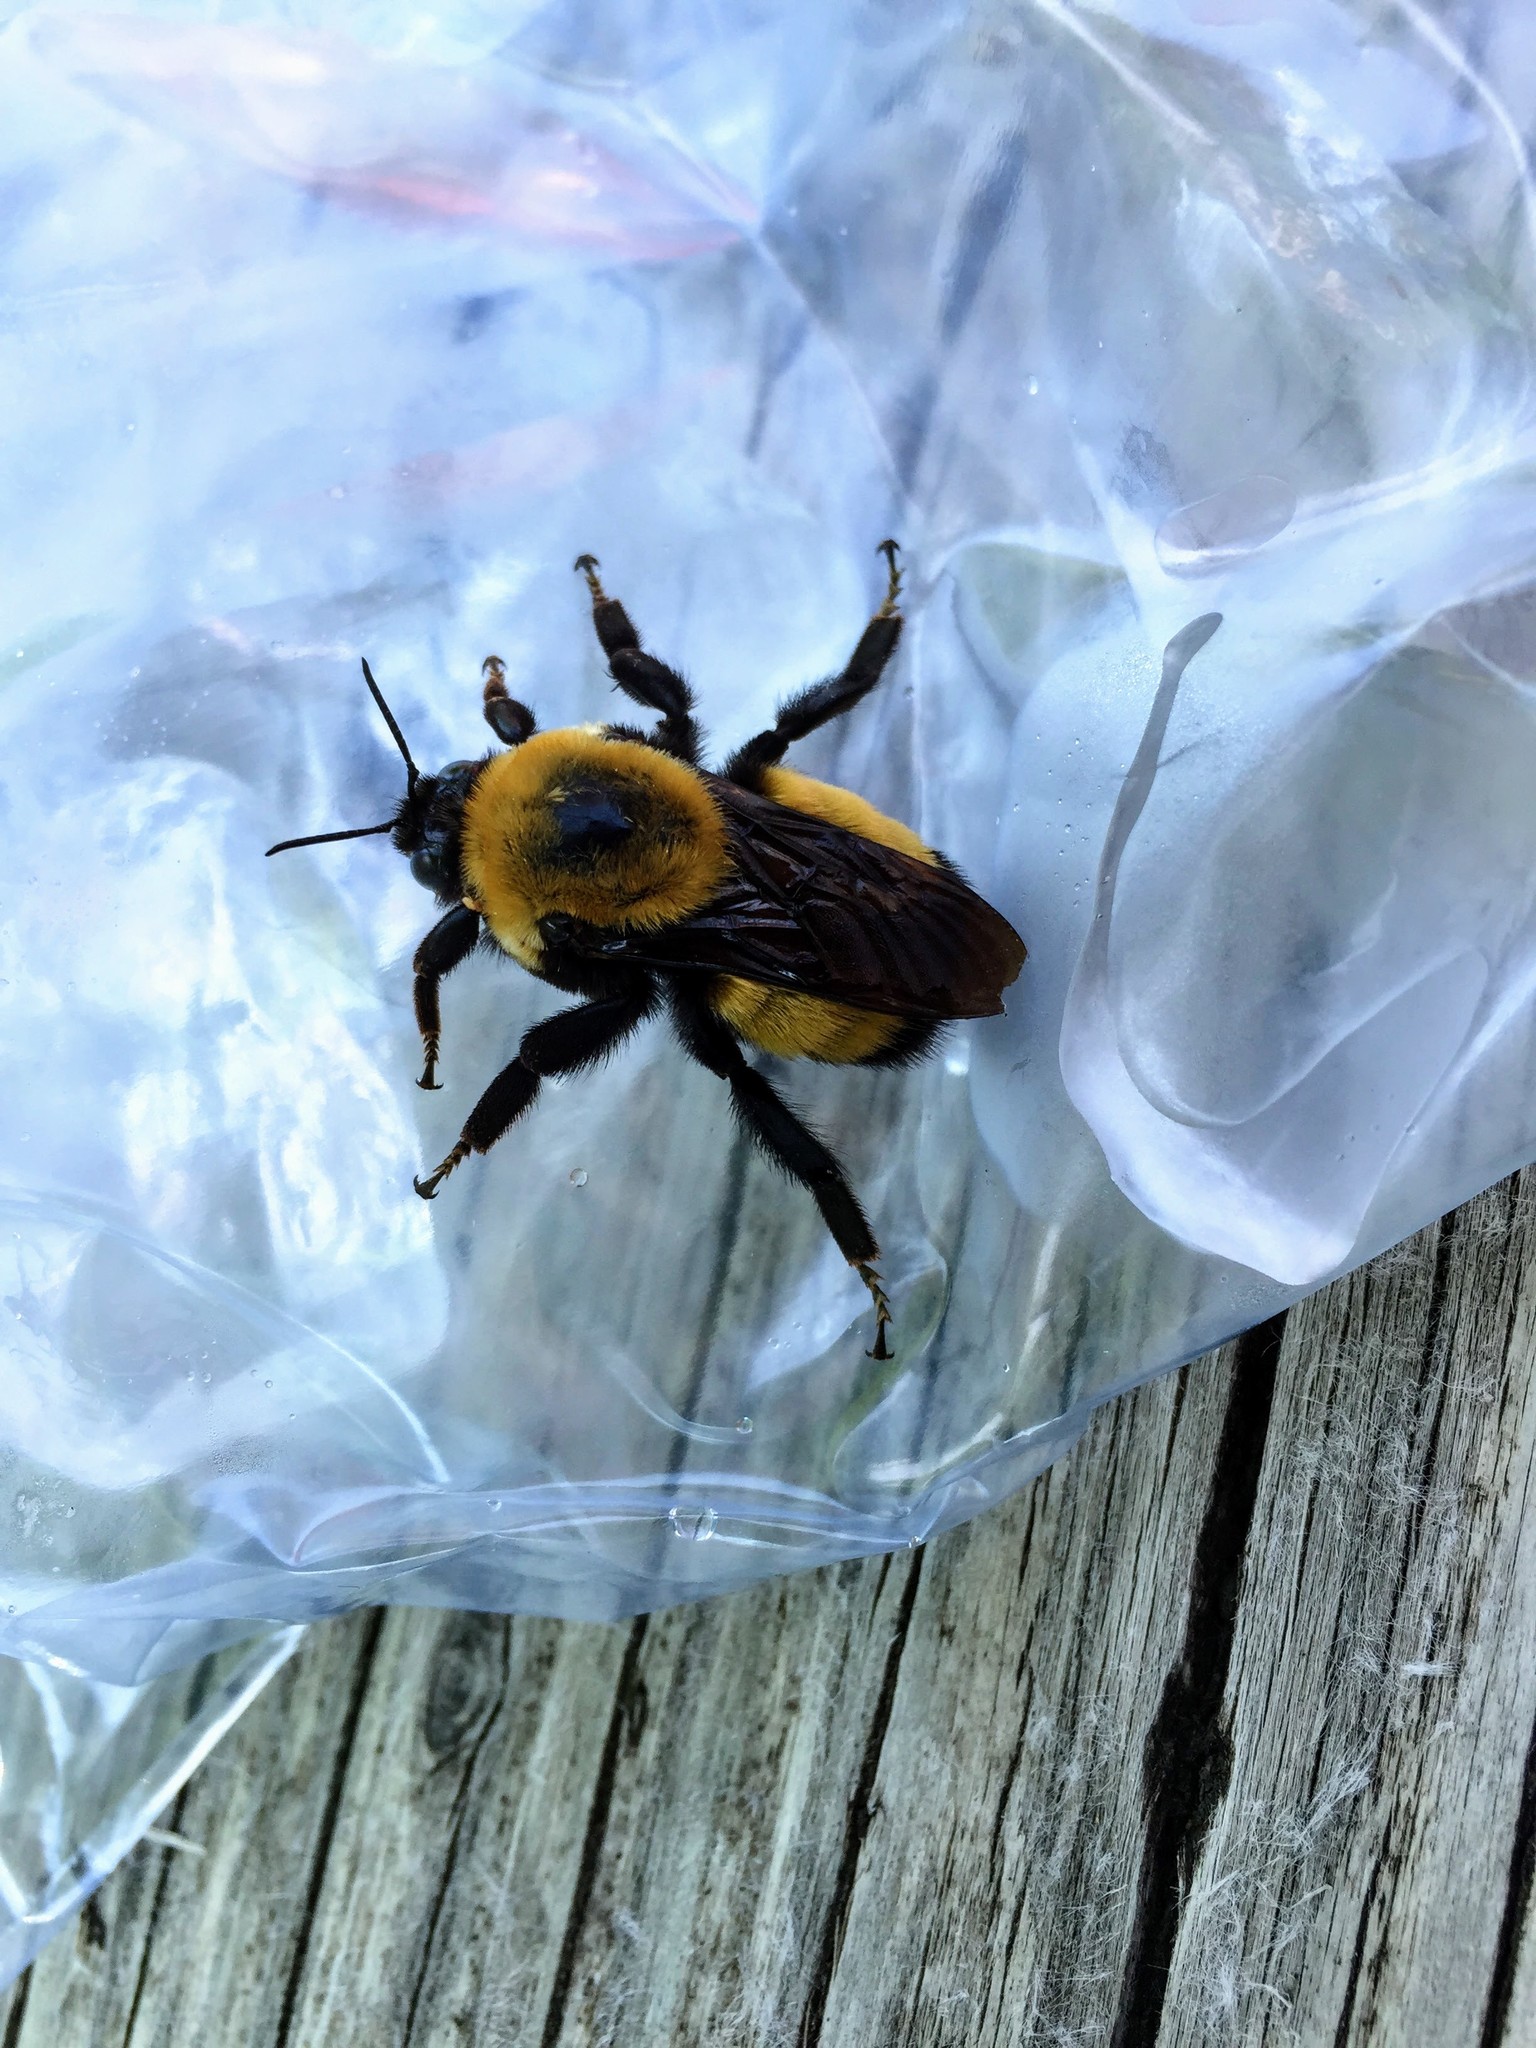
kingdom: Animalia
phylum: Arthropoda
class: Insecta
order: Hymenoptera
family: Apidae
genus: Bombus
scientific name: Bombus nevadensis
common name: Nevada bumble bee
